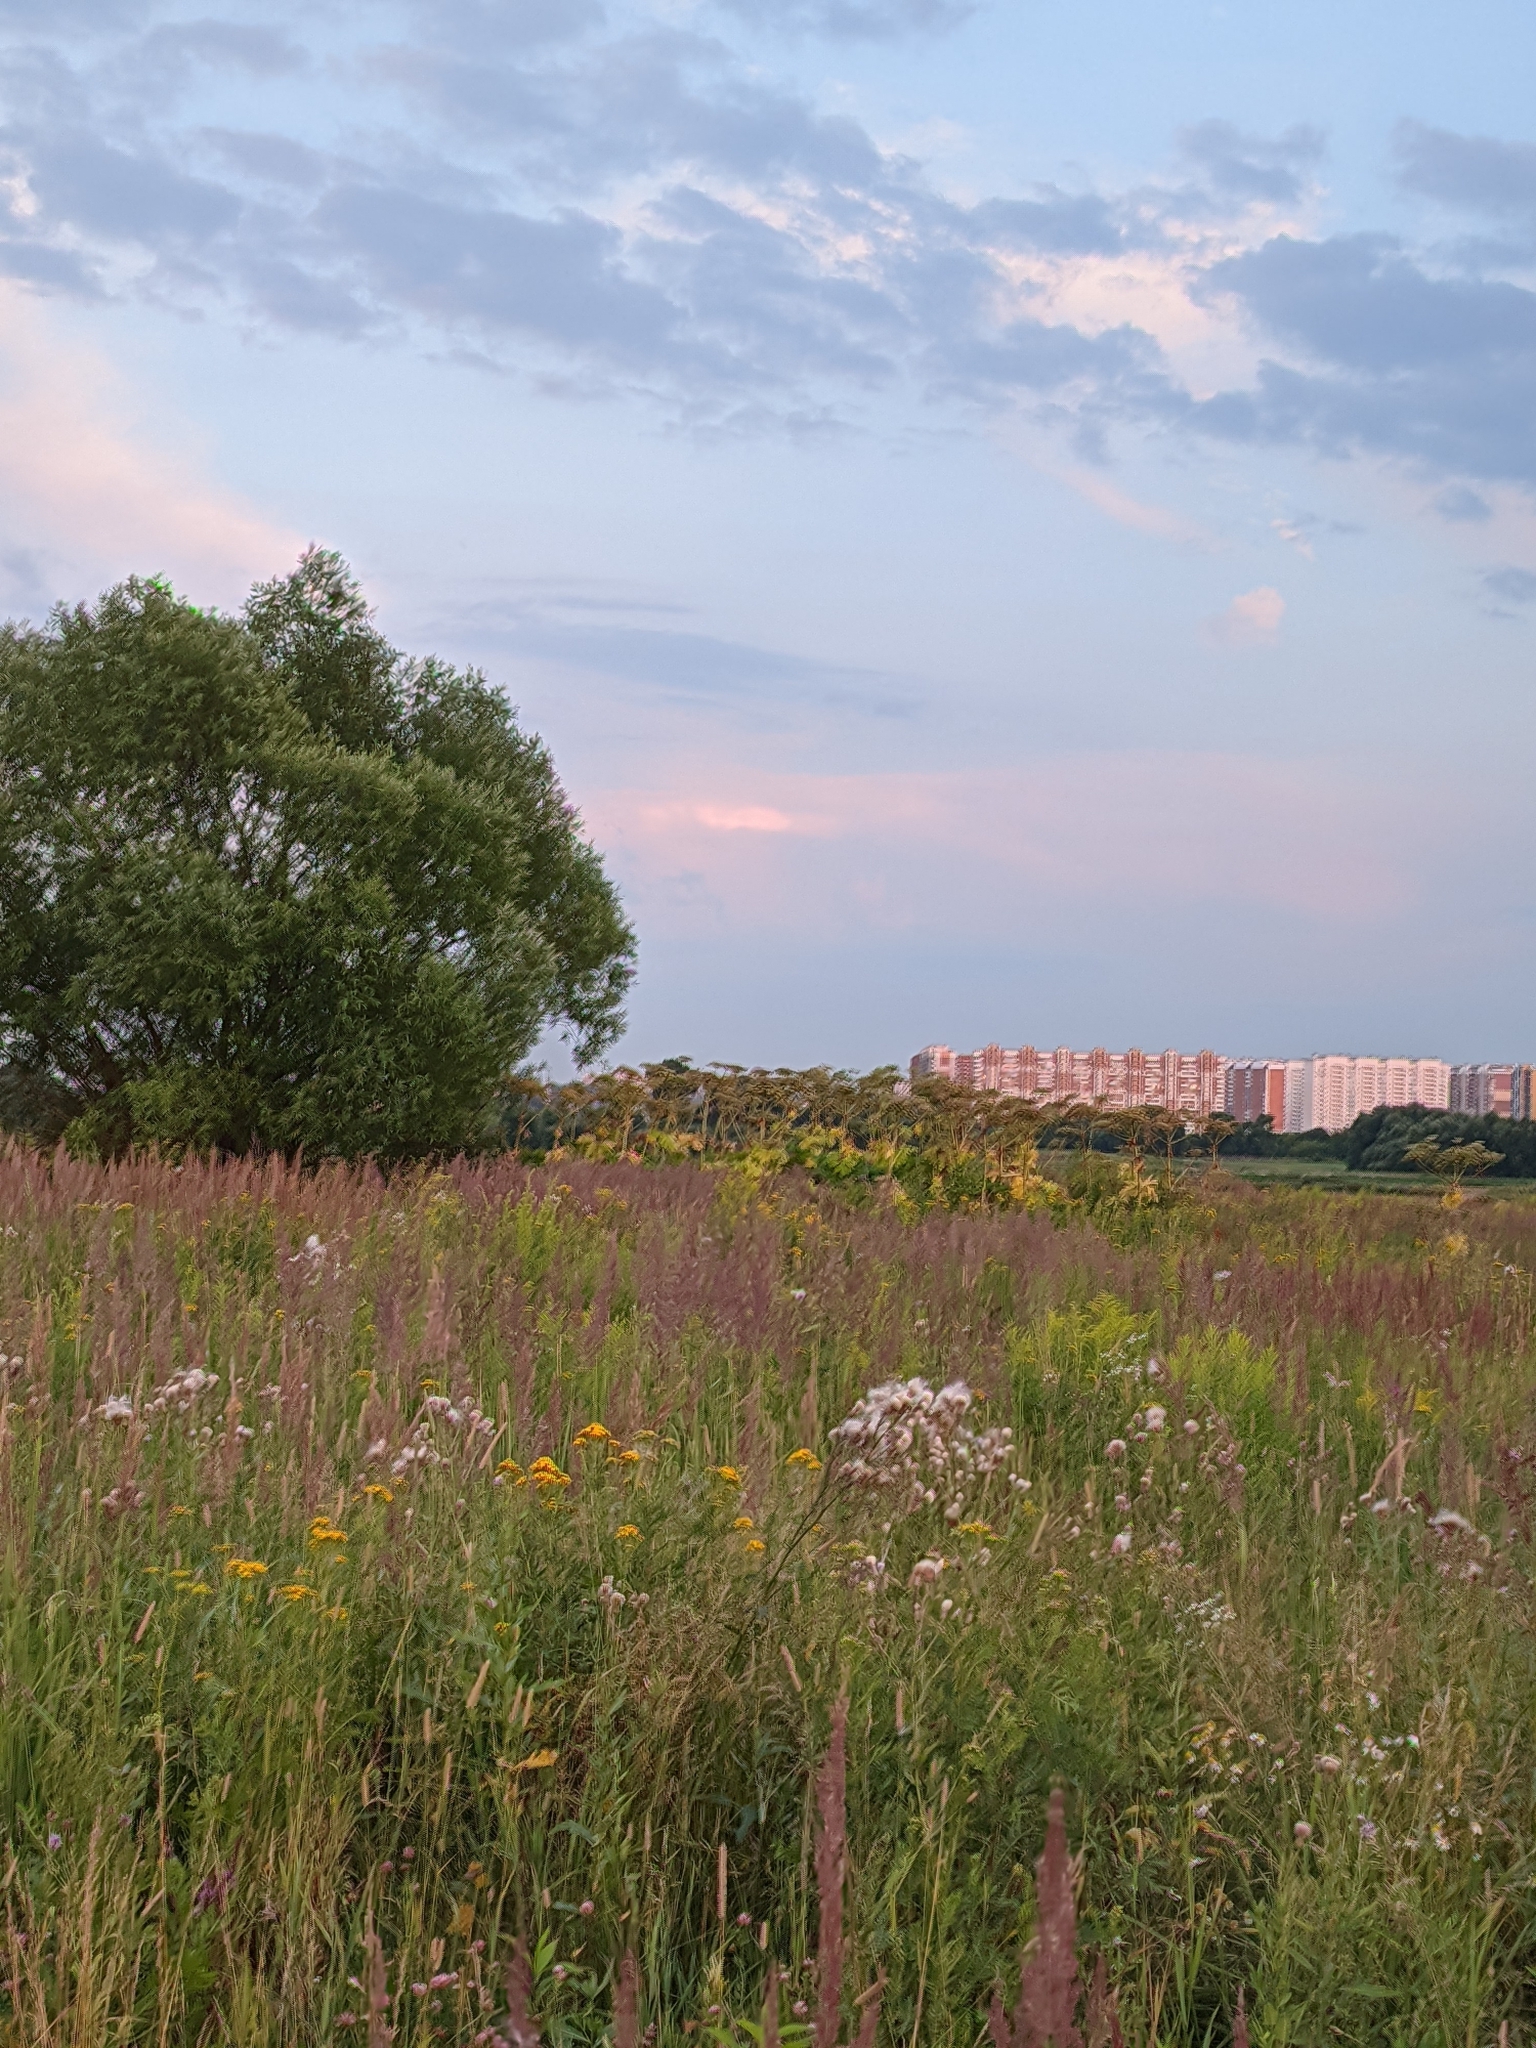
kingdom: Plantae
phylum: Tracheophyta
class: Magnoliopsida
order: Apiales
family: Apiaceae
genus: Heracleum
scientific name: Heracleum sosnowskyi
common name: Sosnowsky's hogweed
